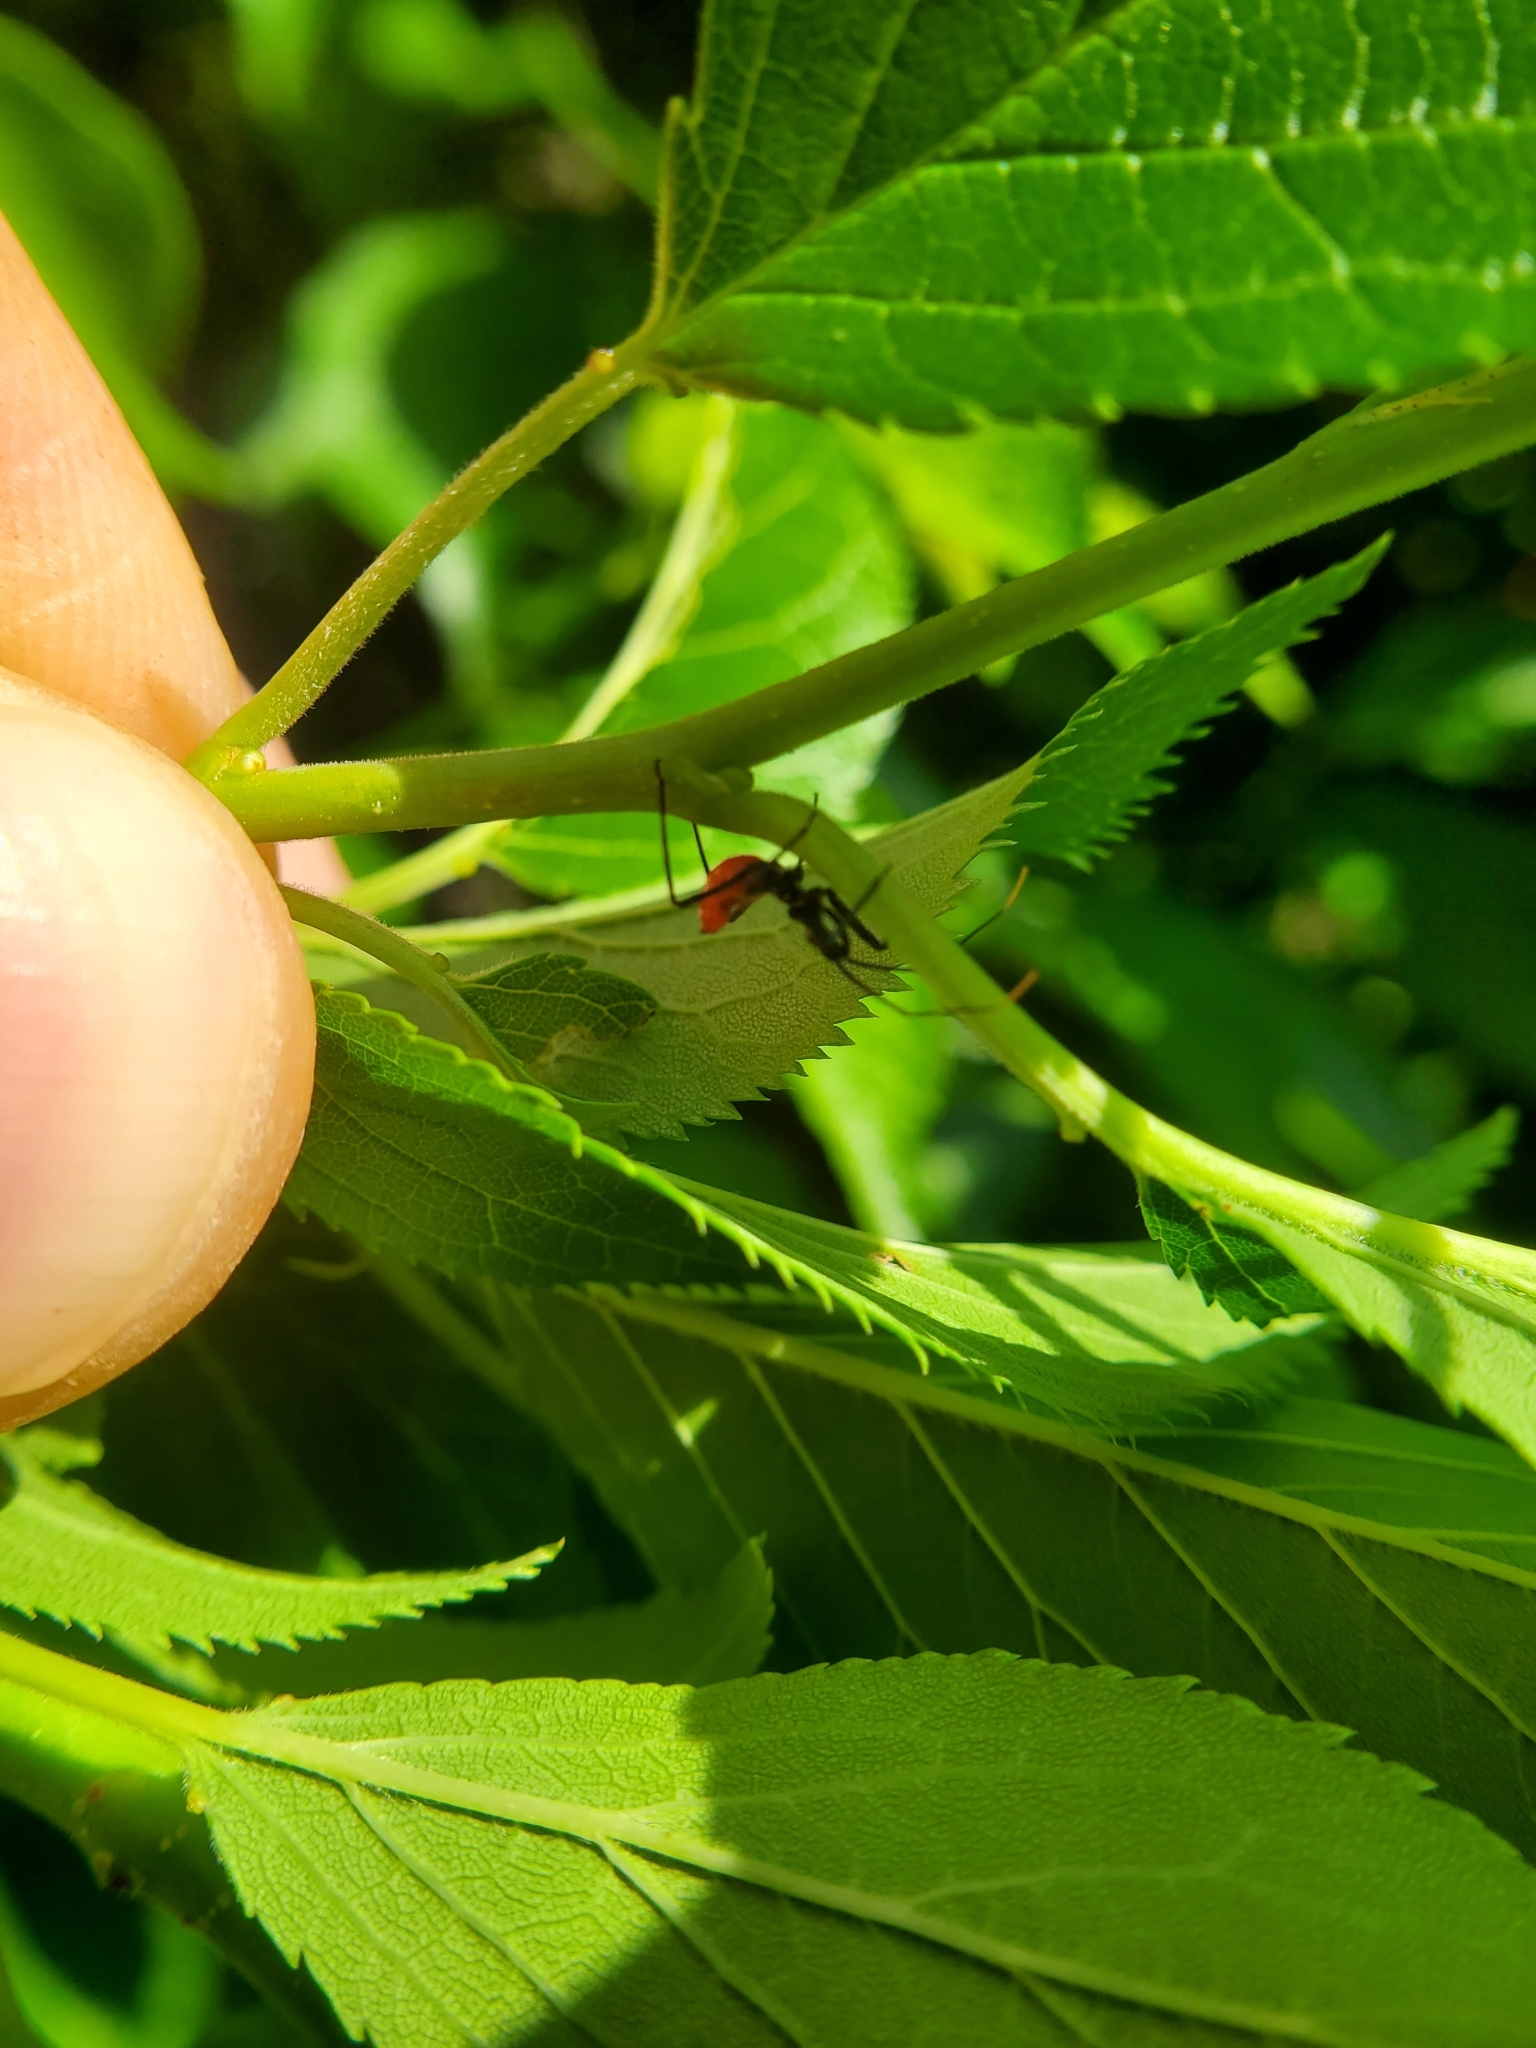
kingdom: Animalia
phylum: Arthropoda
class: Insecta
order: Hemiptera
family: Reduviidae
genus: Arilus
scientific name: Arilus cristatus
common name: North american wheel bug
